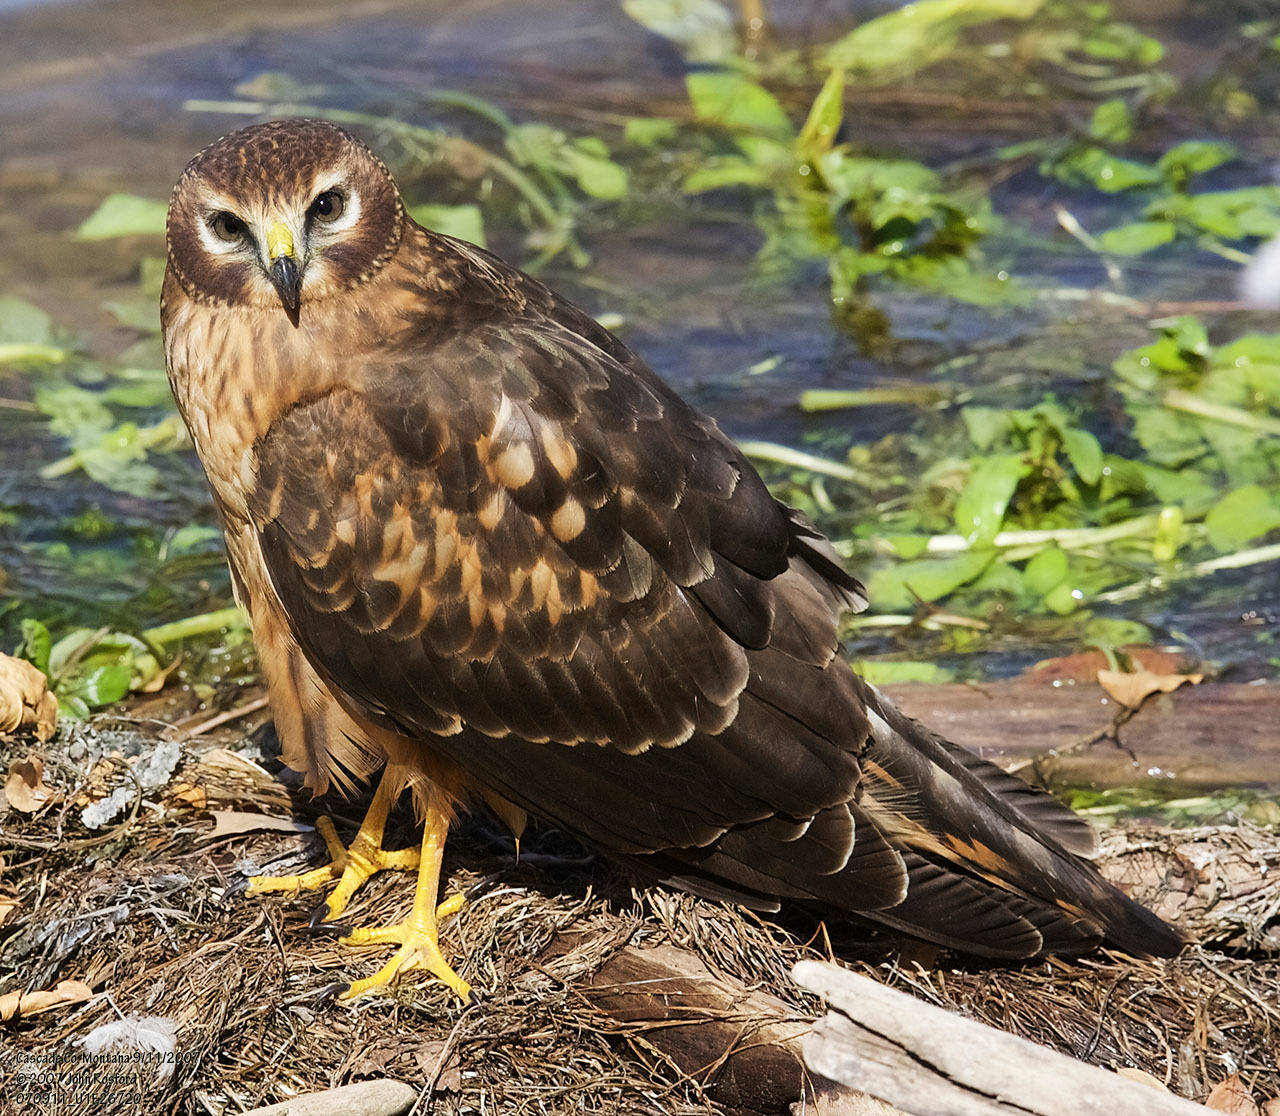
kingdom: Animalia
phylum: Chordata
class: Aves
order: Accipitriformes
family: Accipitridae
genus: Circus
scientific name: Circus cyaneus
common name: Hen harrier
